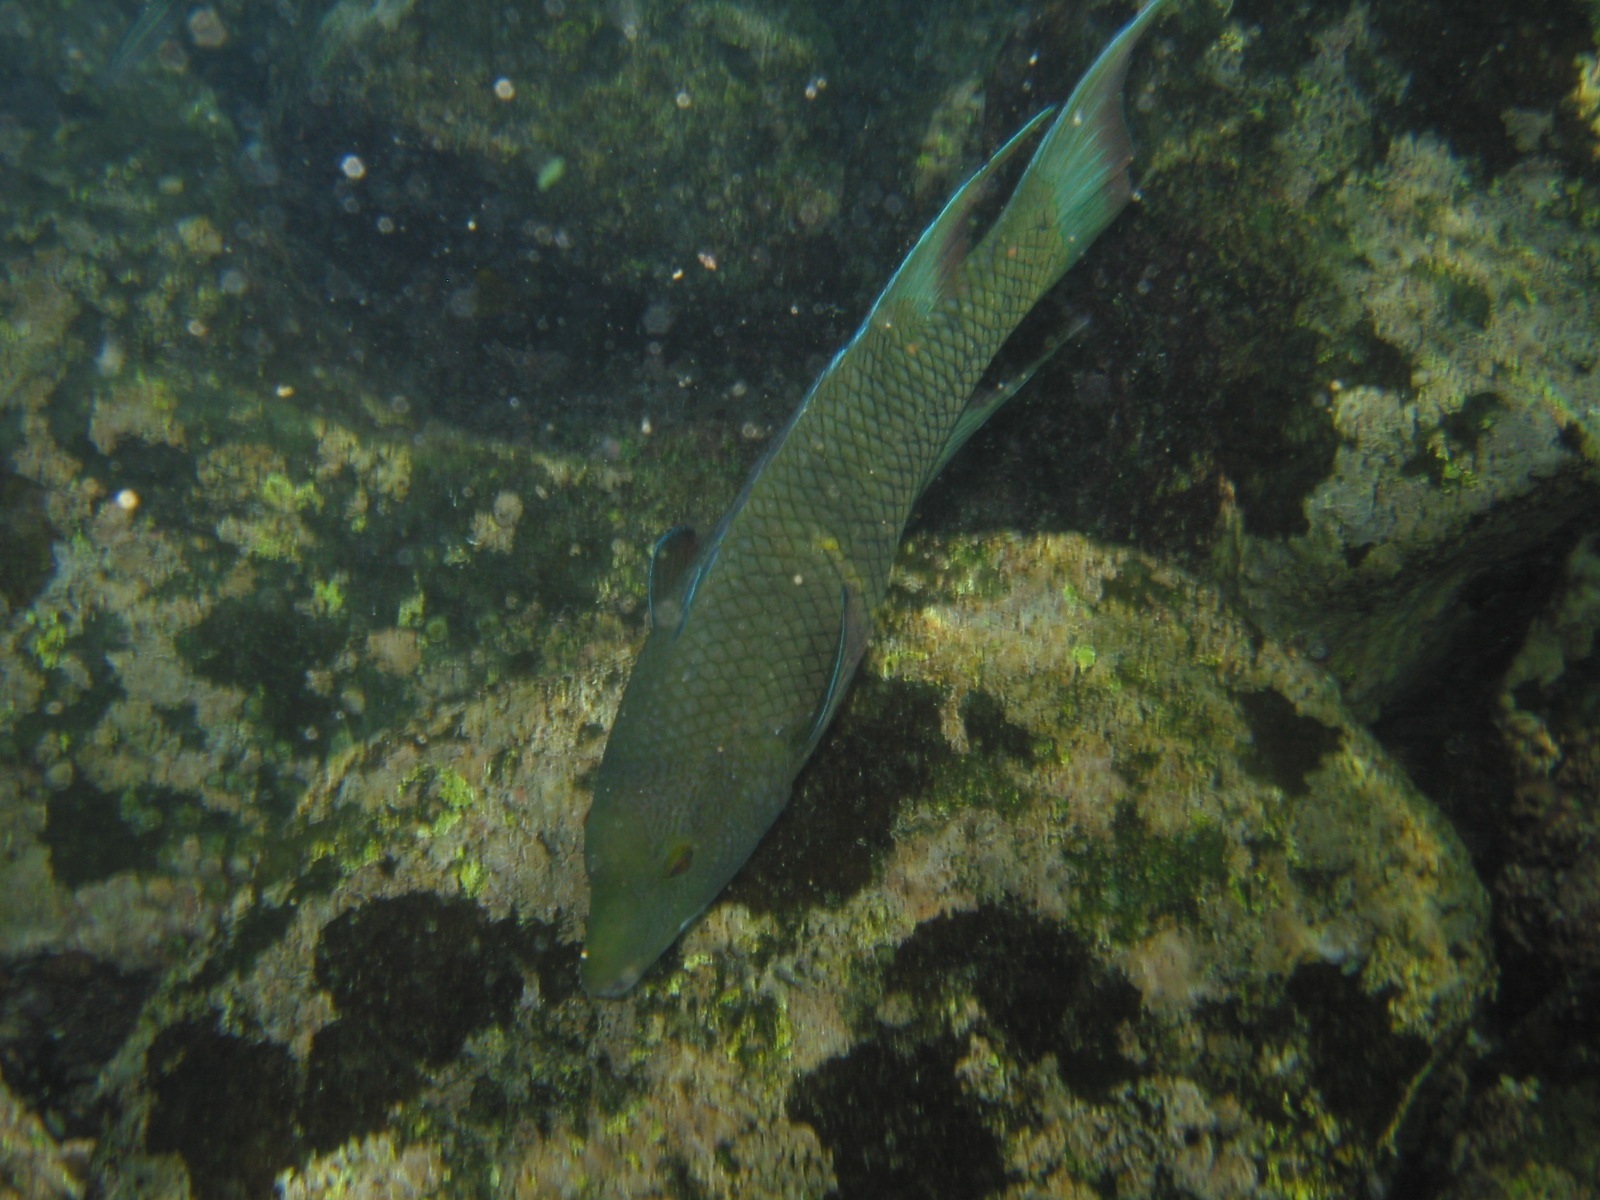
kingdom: Animalia
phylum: Chordata
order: Perciformes
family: Labridae
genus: Bodianus
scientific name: Bodianus diplotaenia
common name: Mexican hogfish
